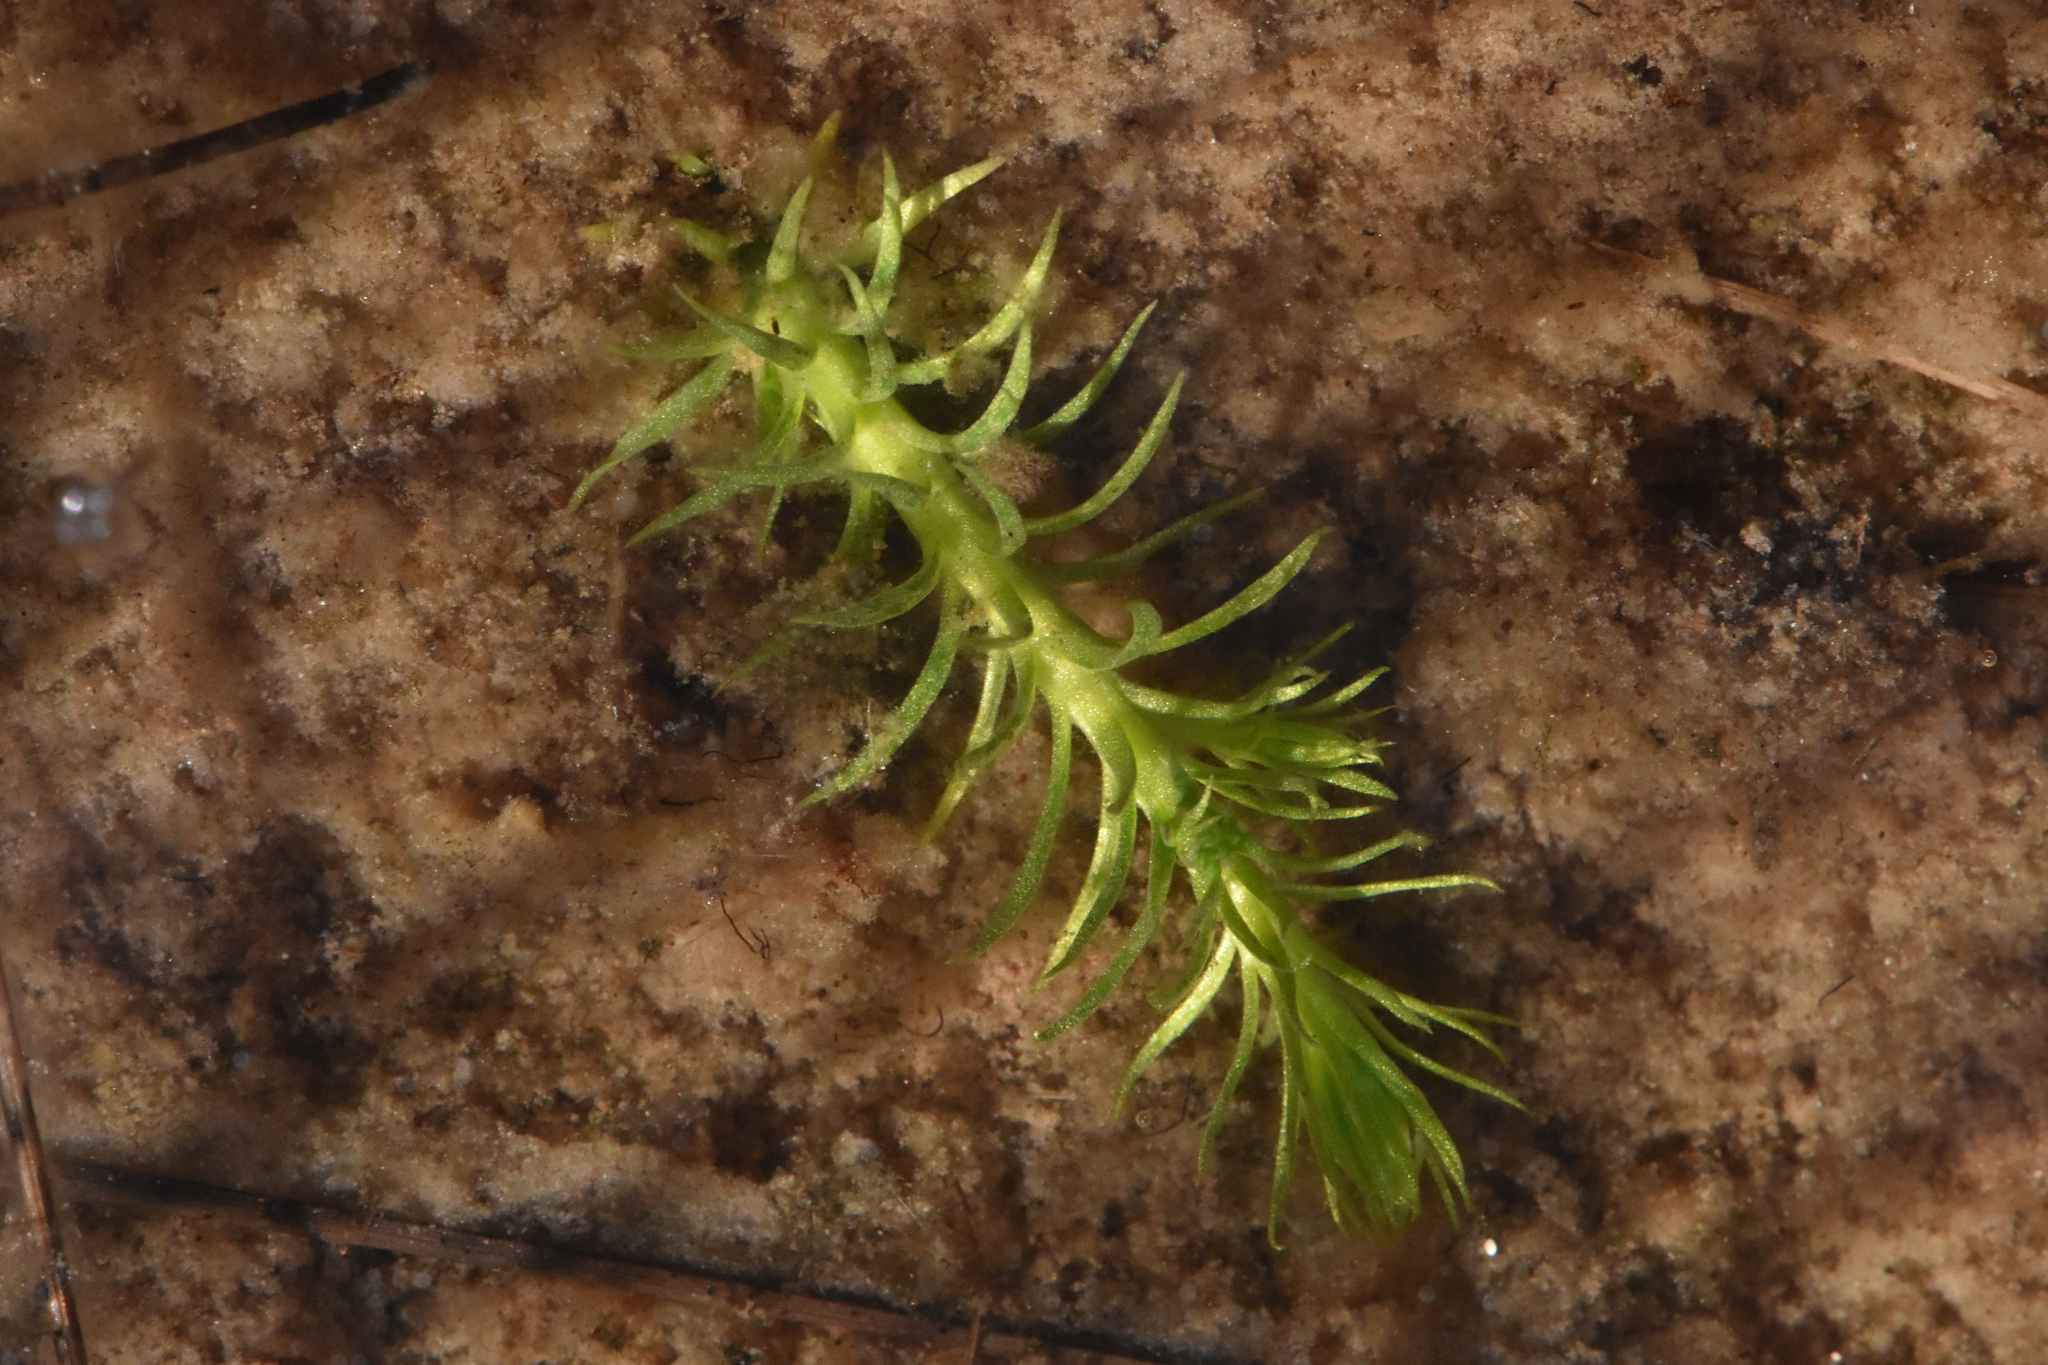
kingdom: Plantae
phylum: Tracheophyta
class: Lycopodiopsida
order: Lycopodiales
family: Lycopodiaceae
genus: Lycopodiella
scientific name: Lycopodiella inundata
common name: Marsh clubmoss
